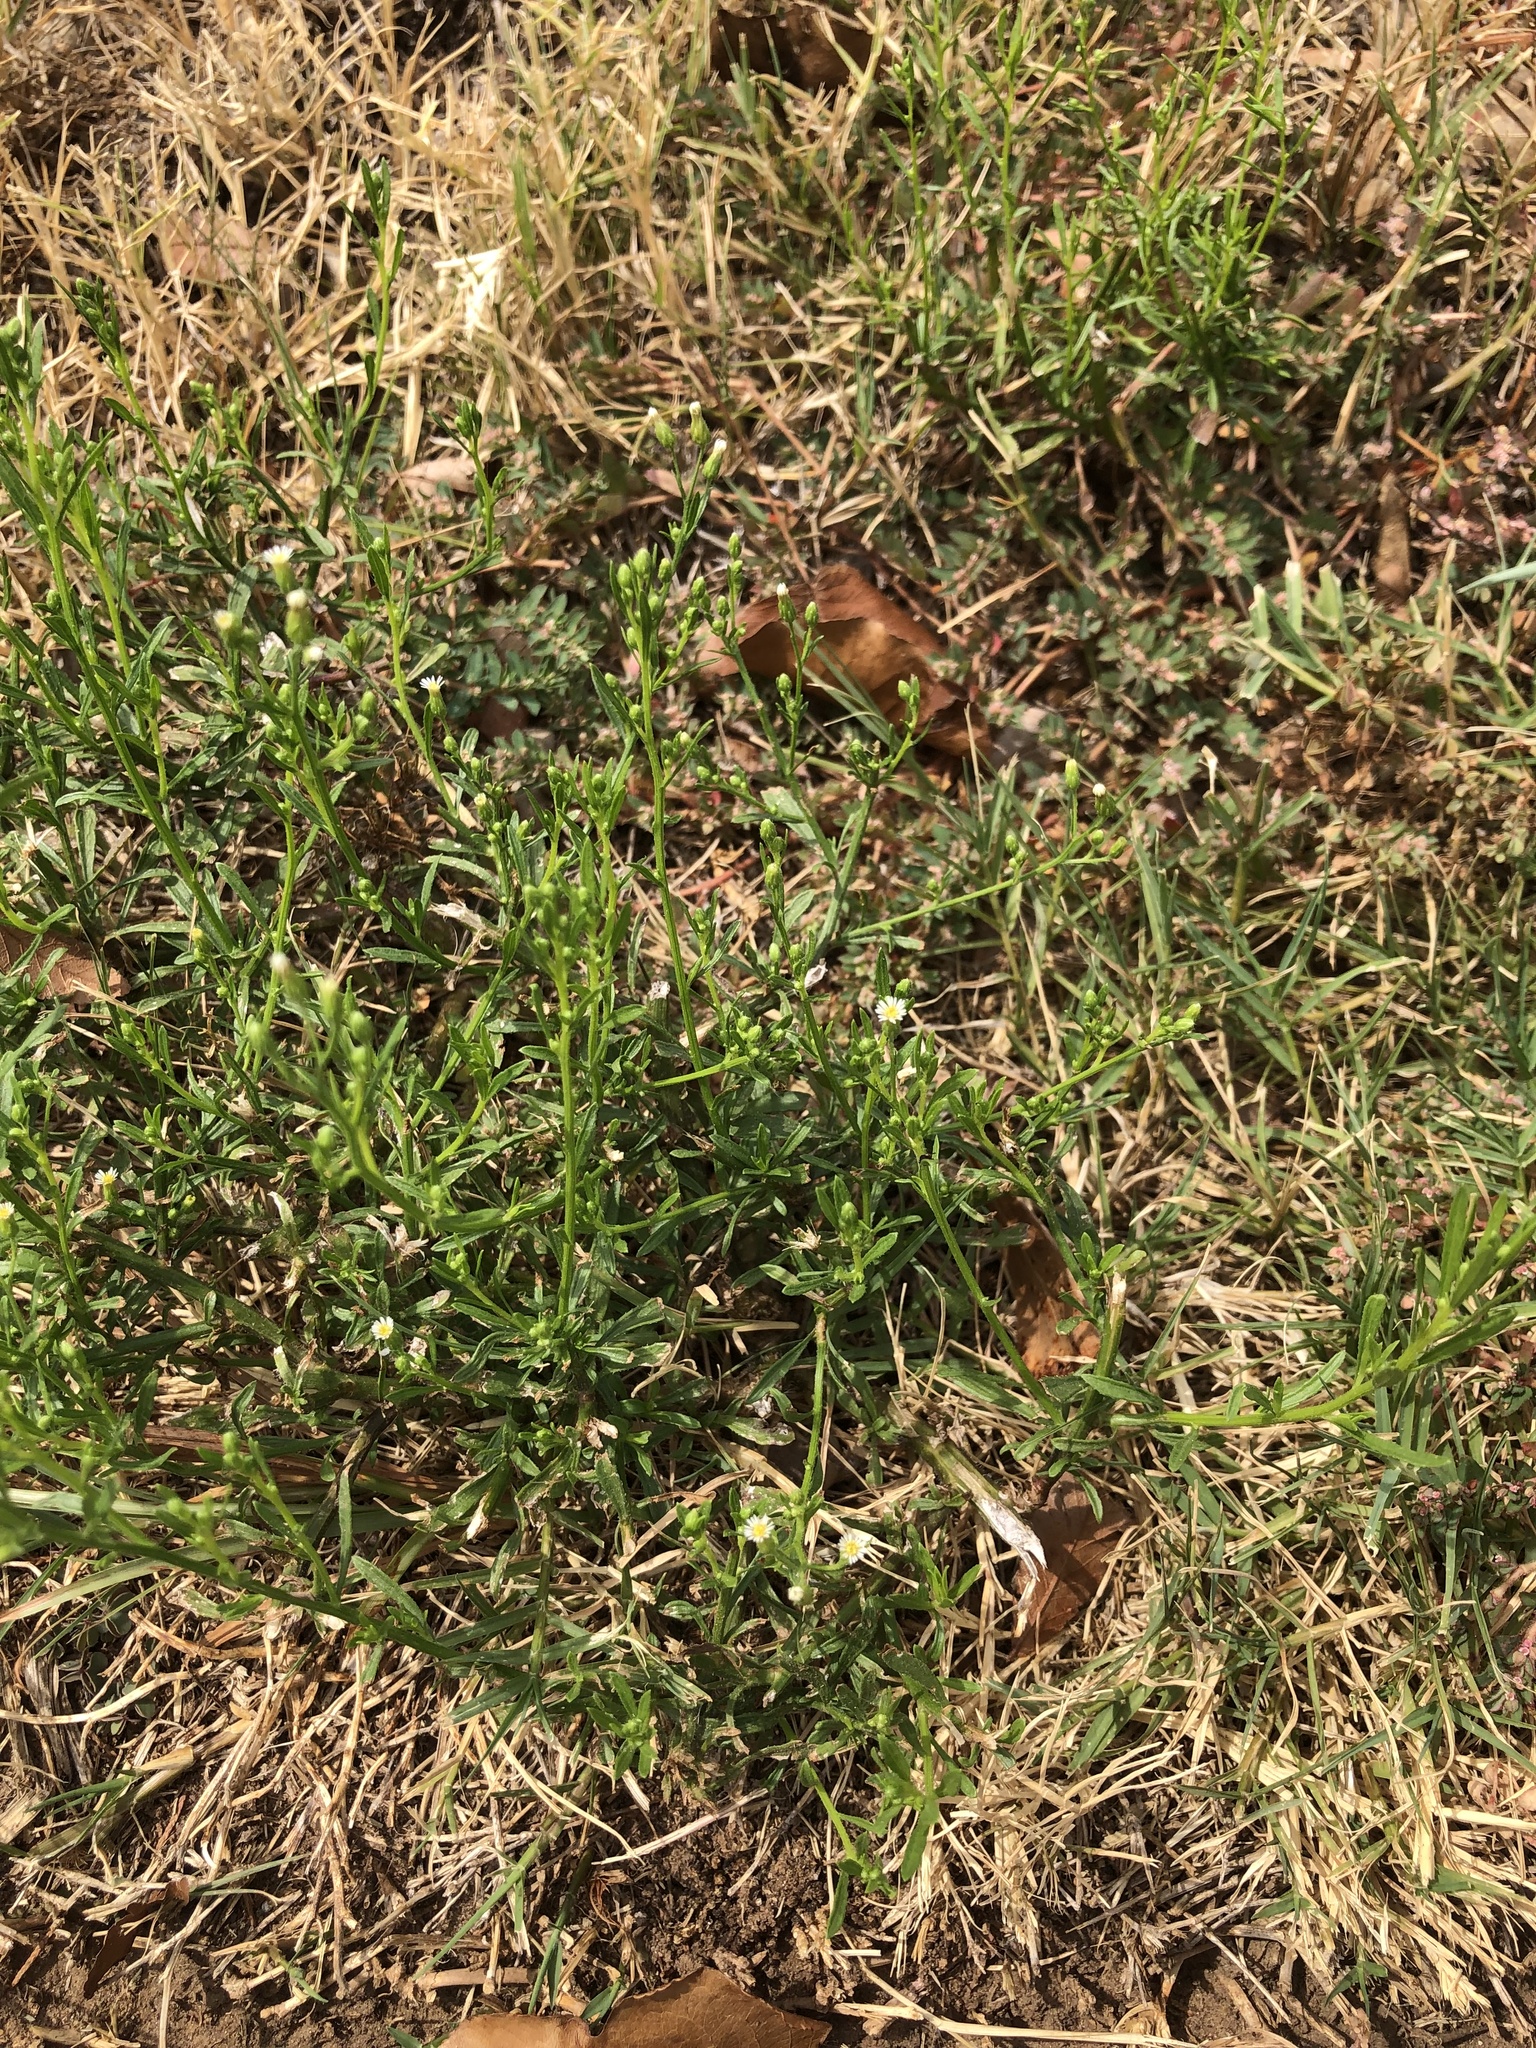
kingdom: Plantae
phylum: Tracheophyta
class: Magnoliopsida
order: Asterales
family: Asteraceae
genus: Erigeron
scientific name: Erigeron canadensis
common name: Canadian fleabane
